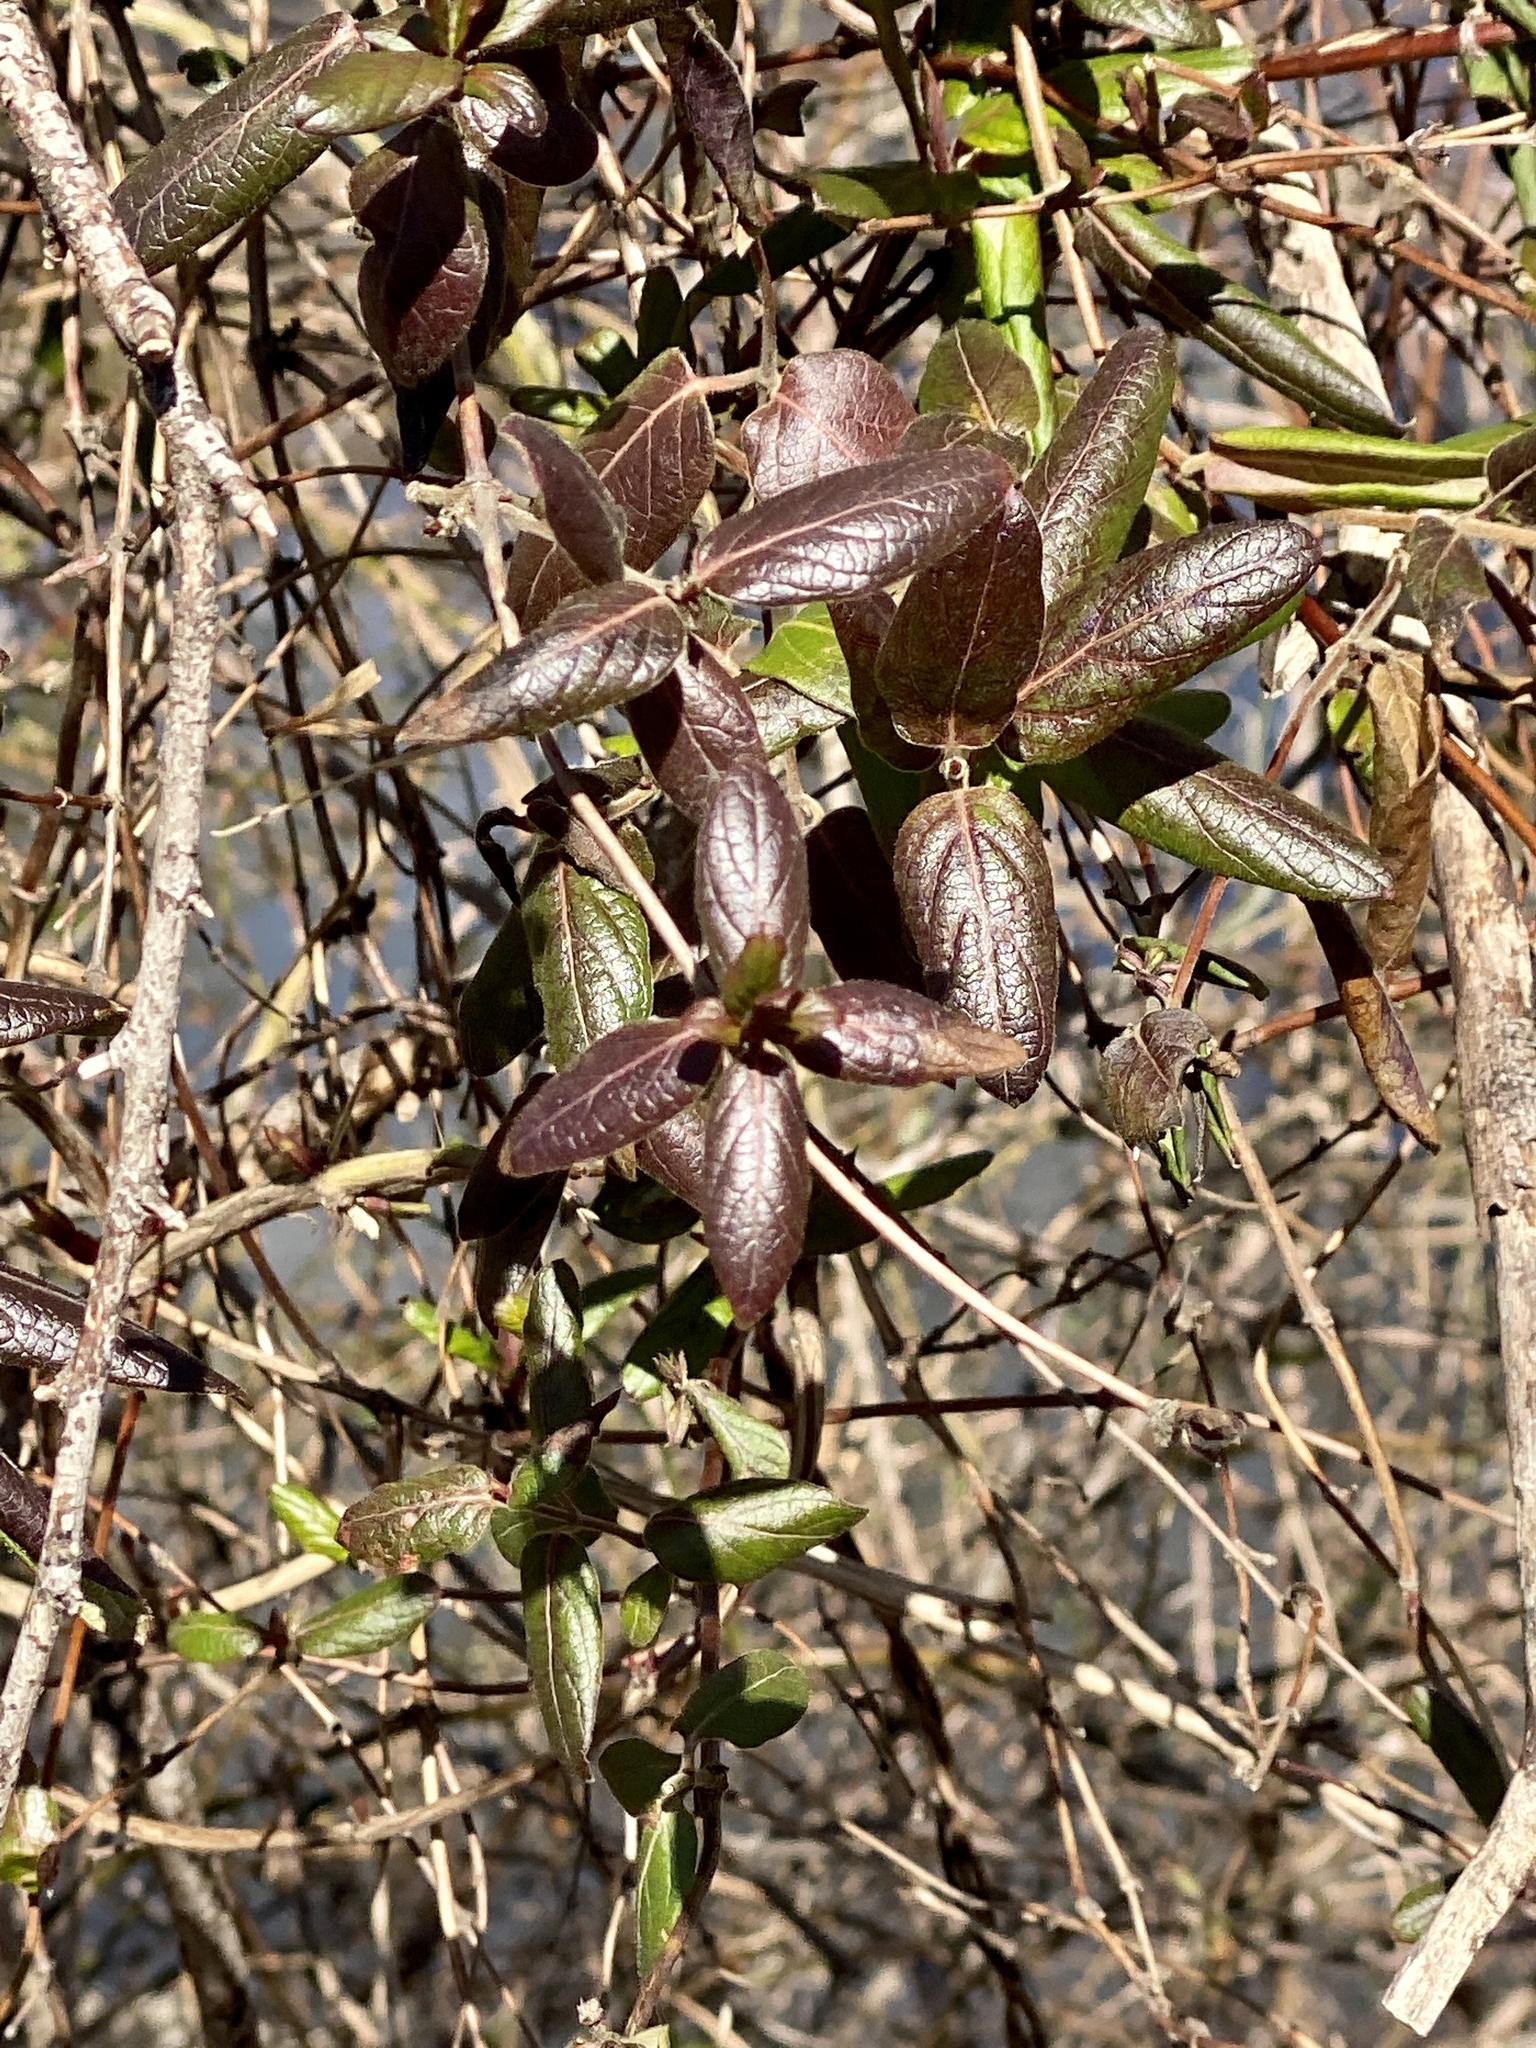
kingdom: Plantae
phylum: Tracheophyta
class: Magnoliopsida
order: Dipsacales
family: Caprifoliaceae
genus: Lonicera
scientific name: Lonicera japonica
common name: Japanese honeysuckle
